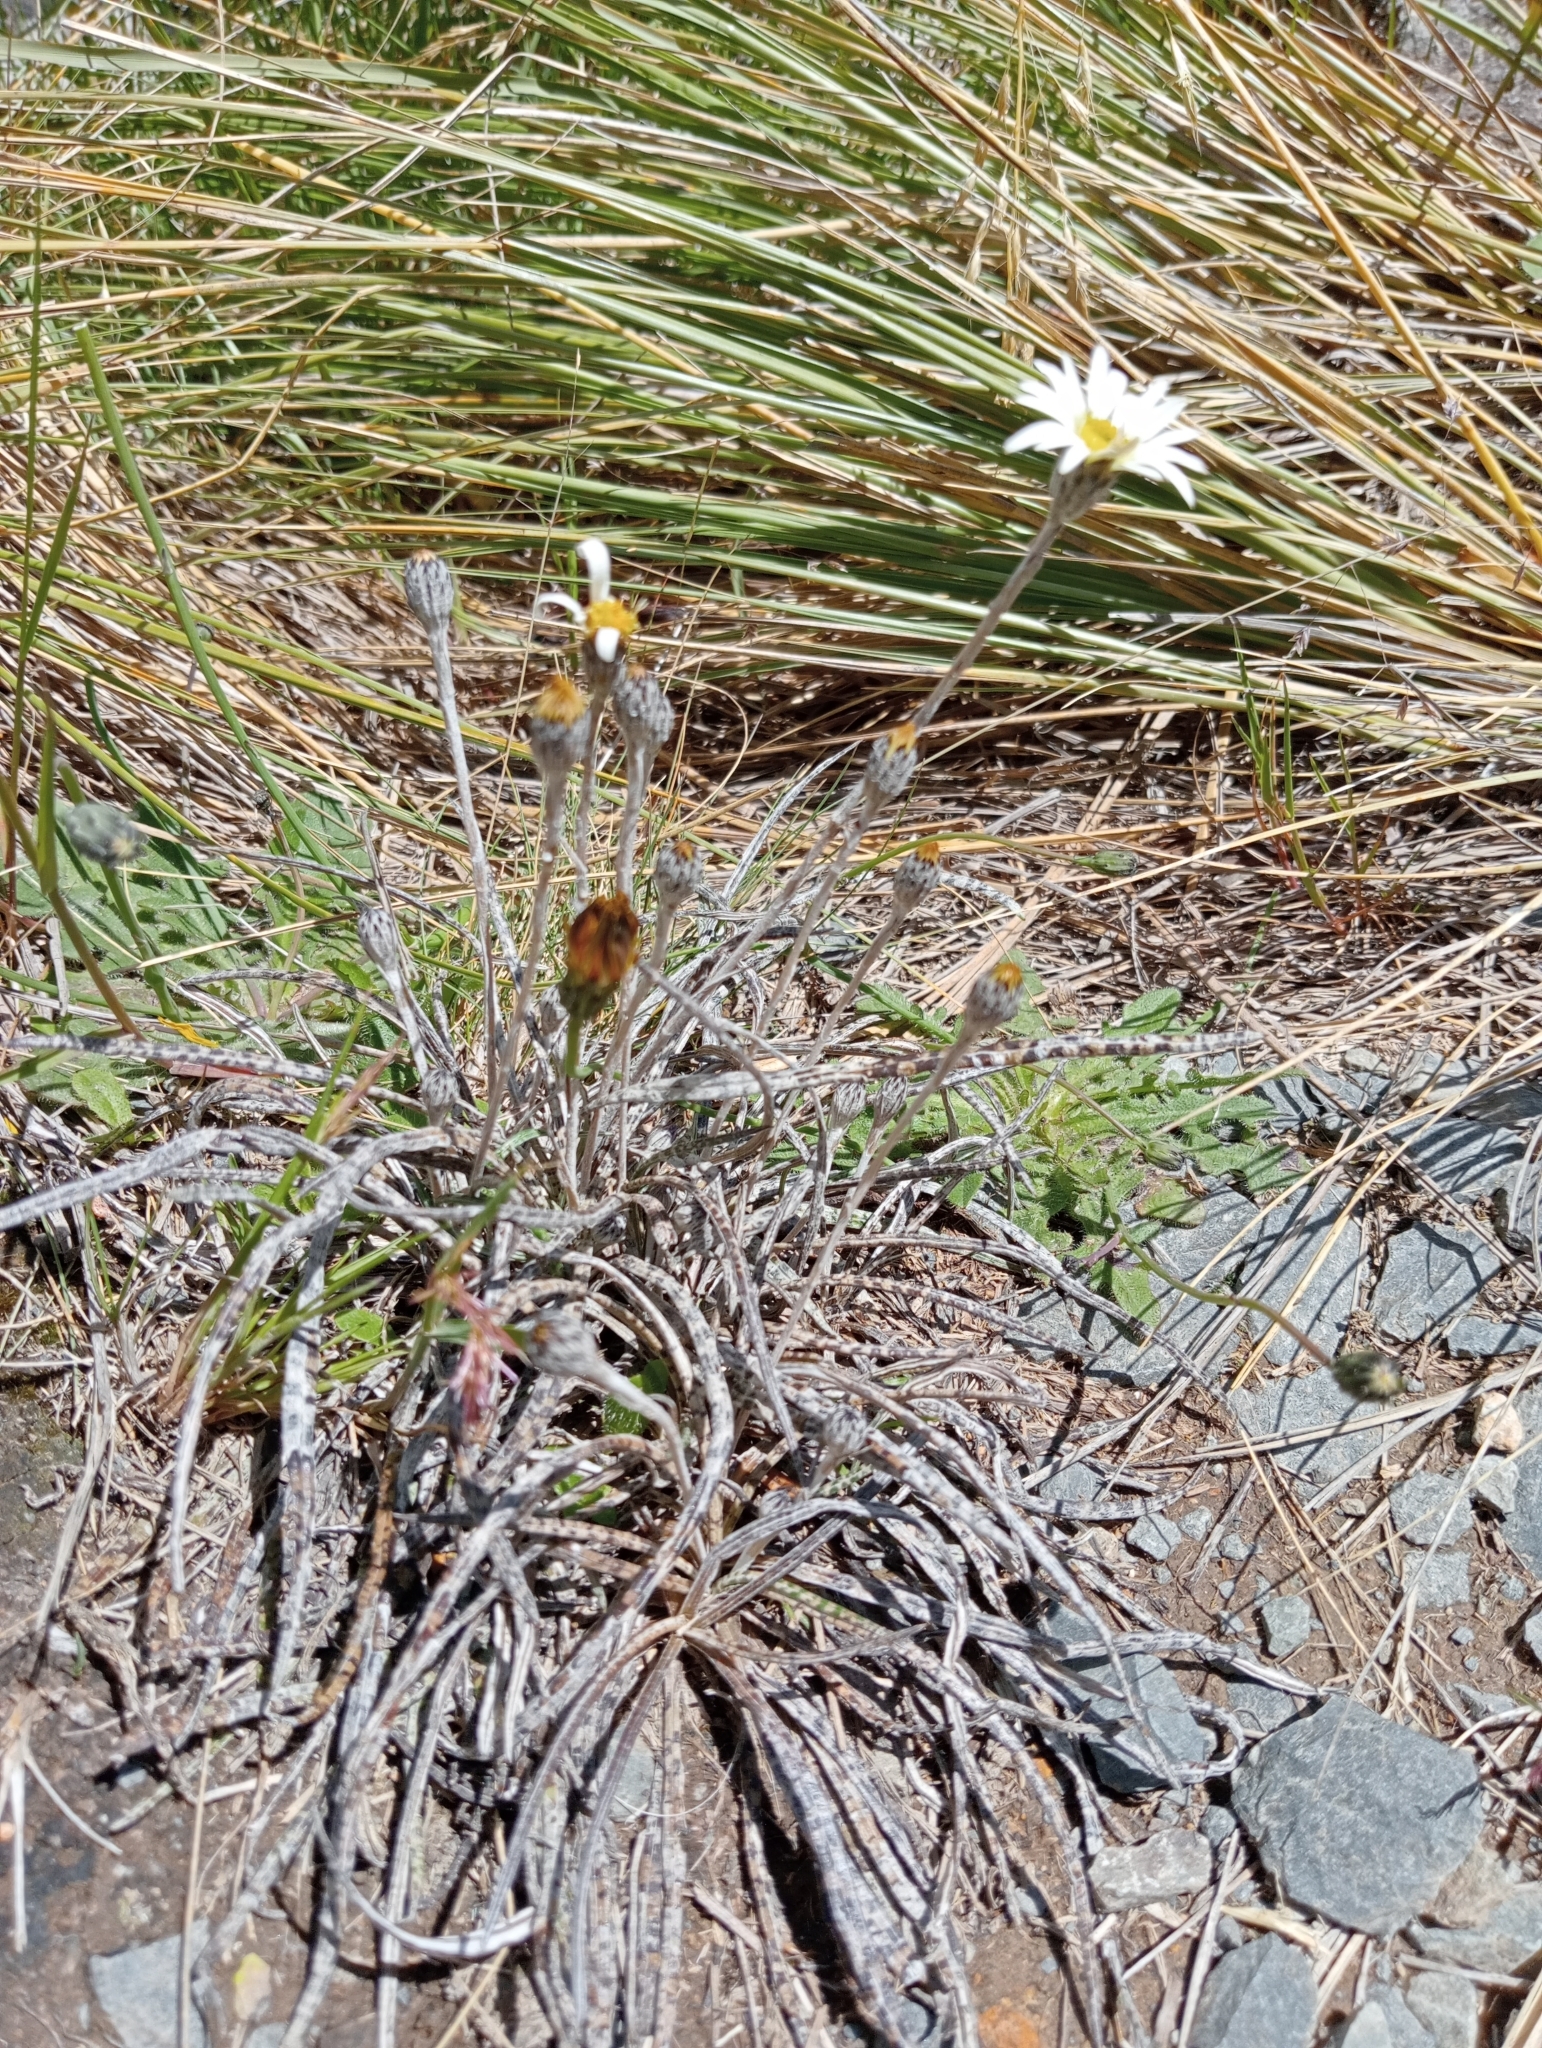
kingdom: Plantae
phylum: Tracheophyta
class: Magnoliopsida
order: Asterales
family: Asteraceae
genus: Celmisia
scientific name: Celmisia gracilenta
